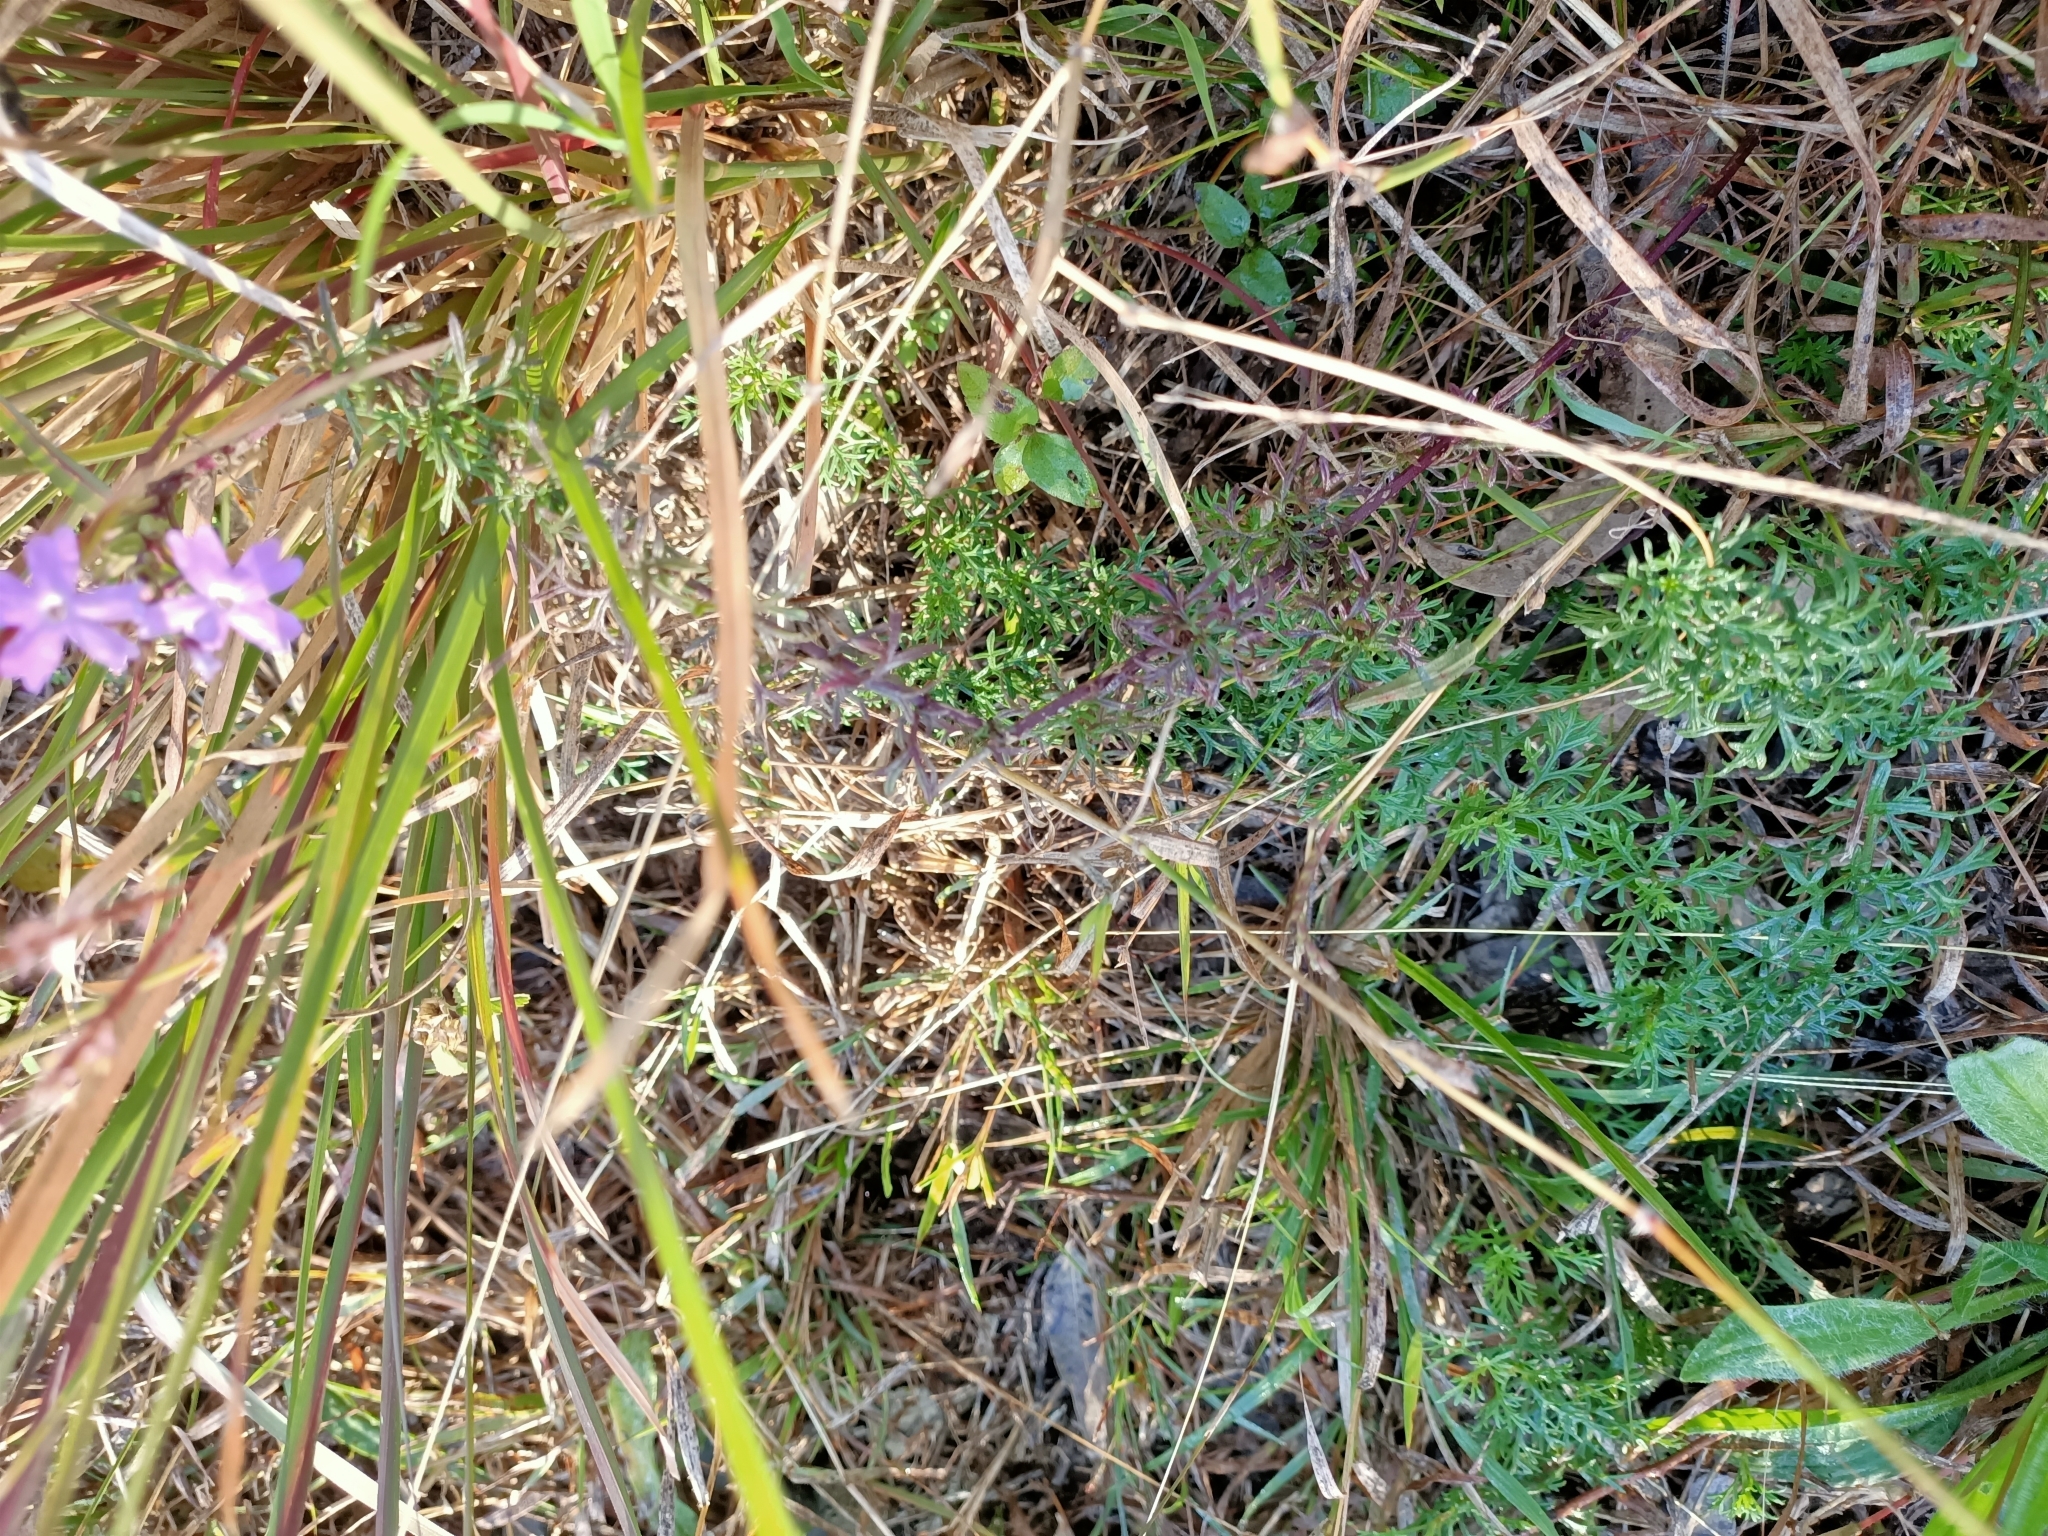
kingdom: Plantae
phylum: Tracheophyta
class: Magnoliopsida
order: Lamiales
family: Verbenaceae
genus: Verbena
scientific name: Verbena aristigera
